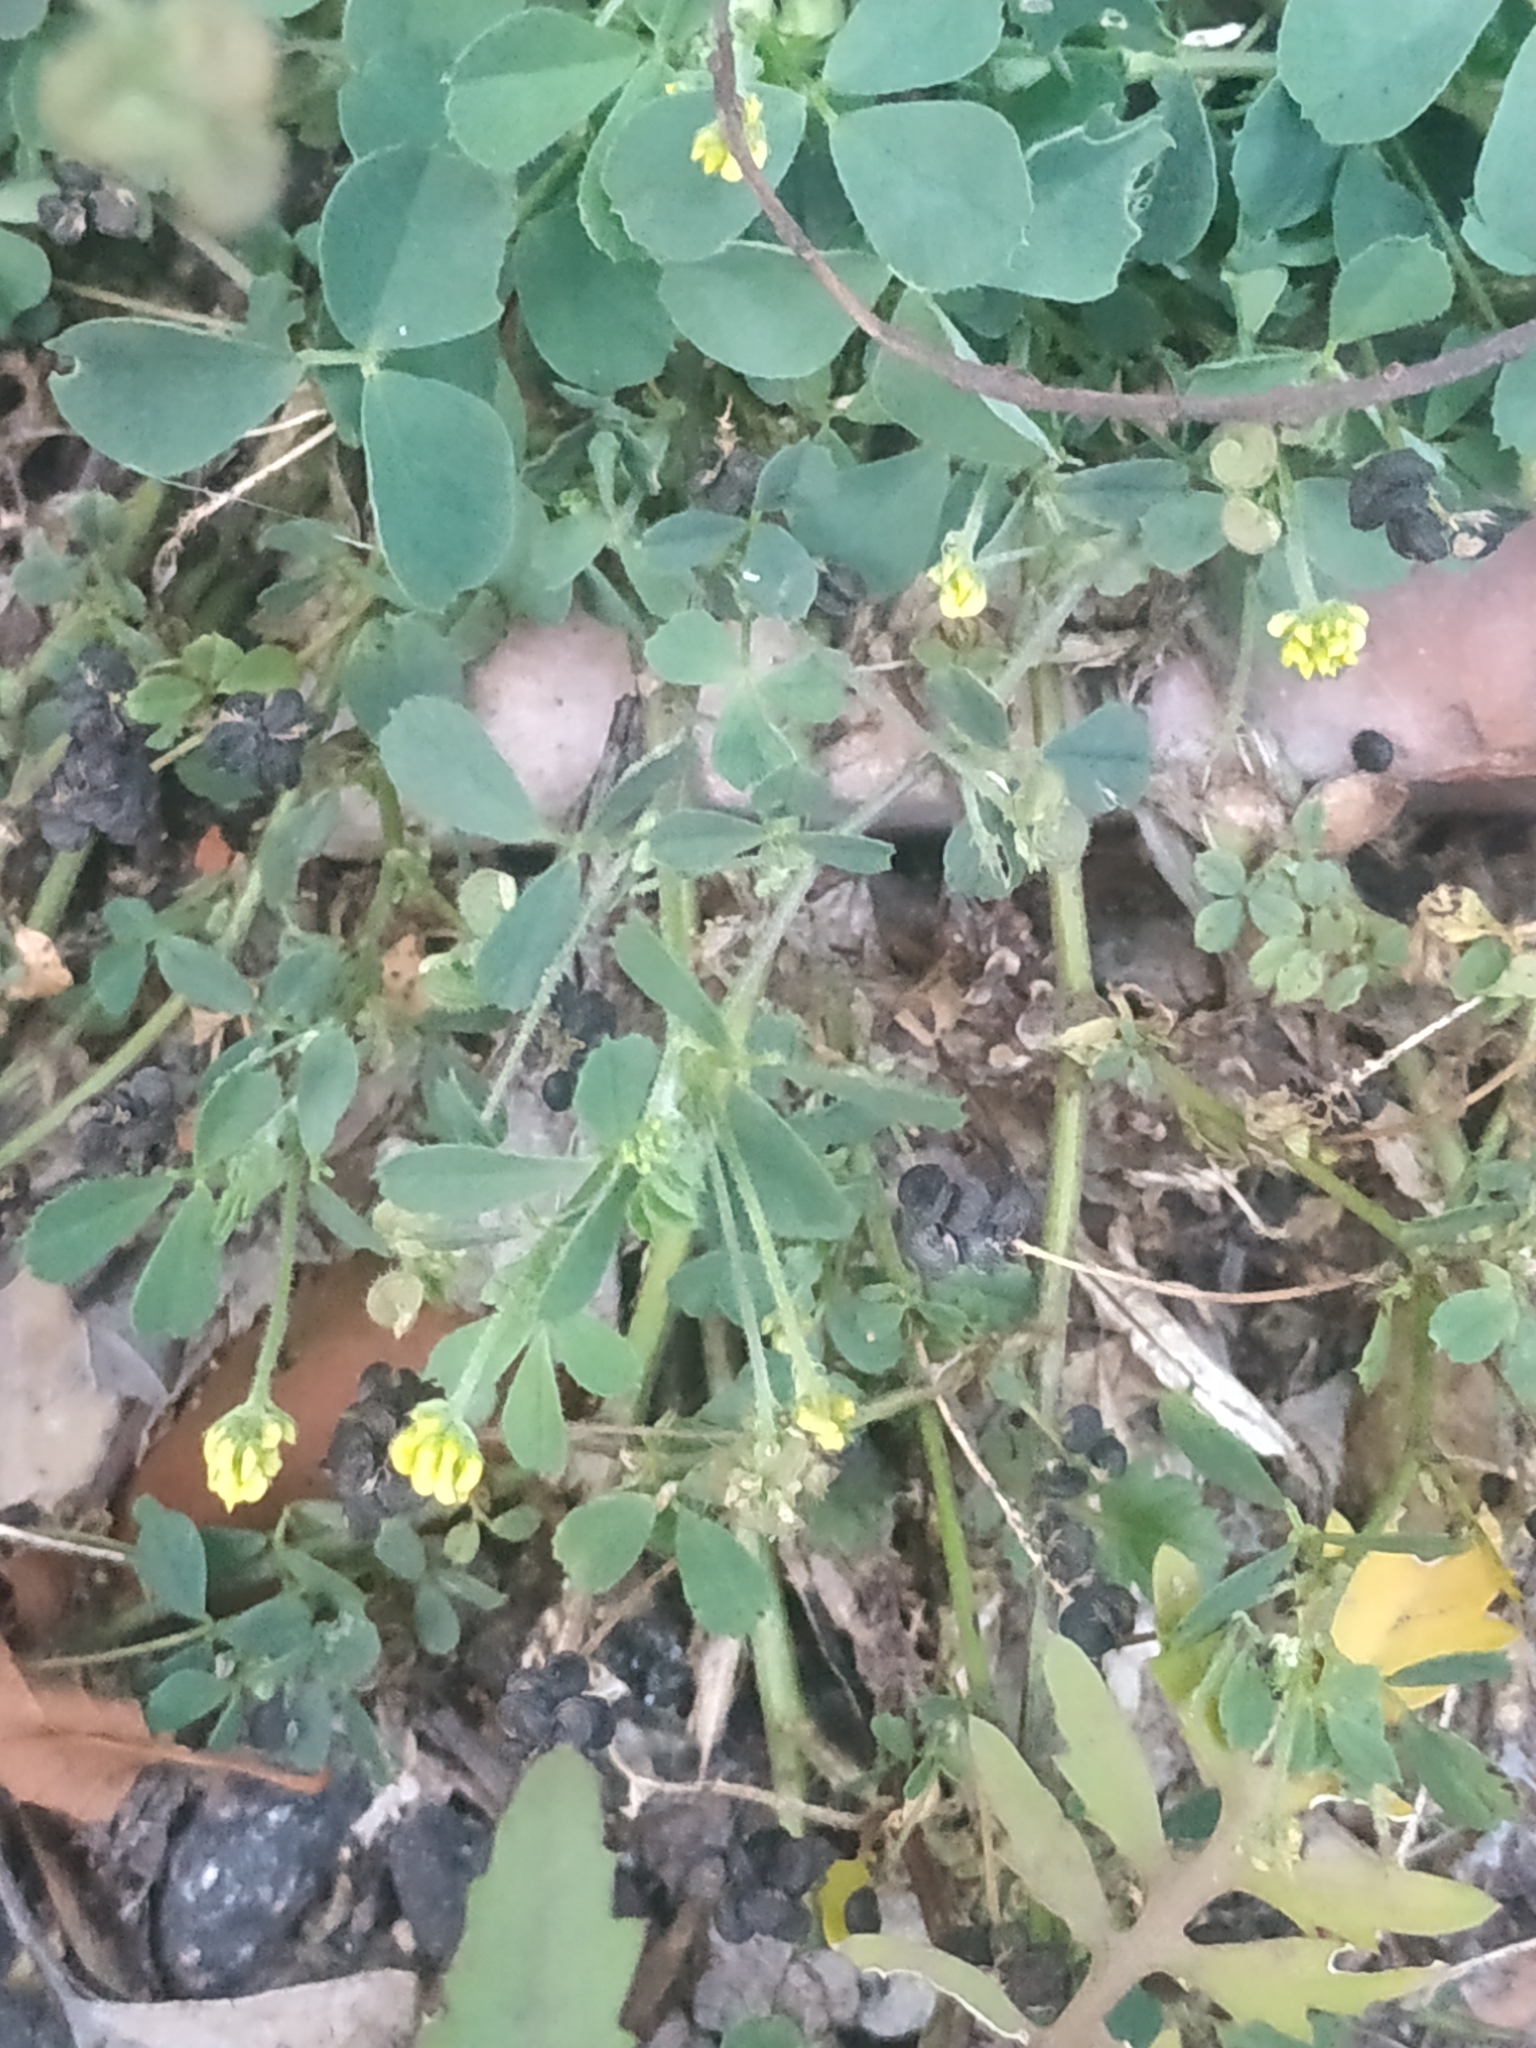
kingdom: Plantae
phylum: Tracheophyta
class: Magnoliopsida
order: Fabales
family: Fabaceae
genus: Medicago
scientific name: Medicago lupulina
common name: Black medick
